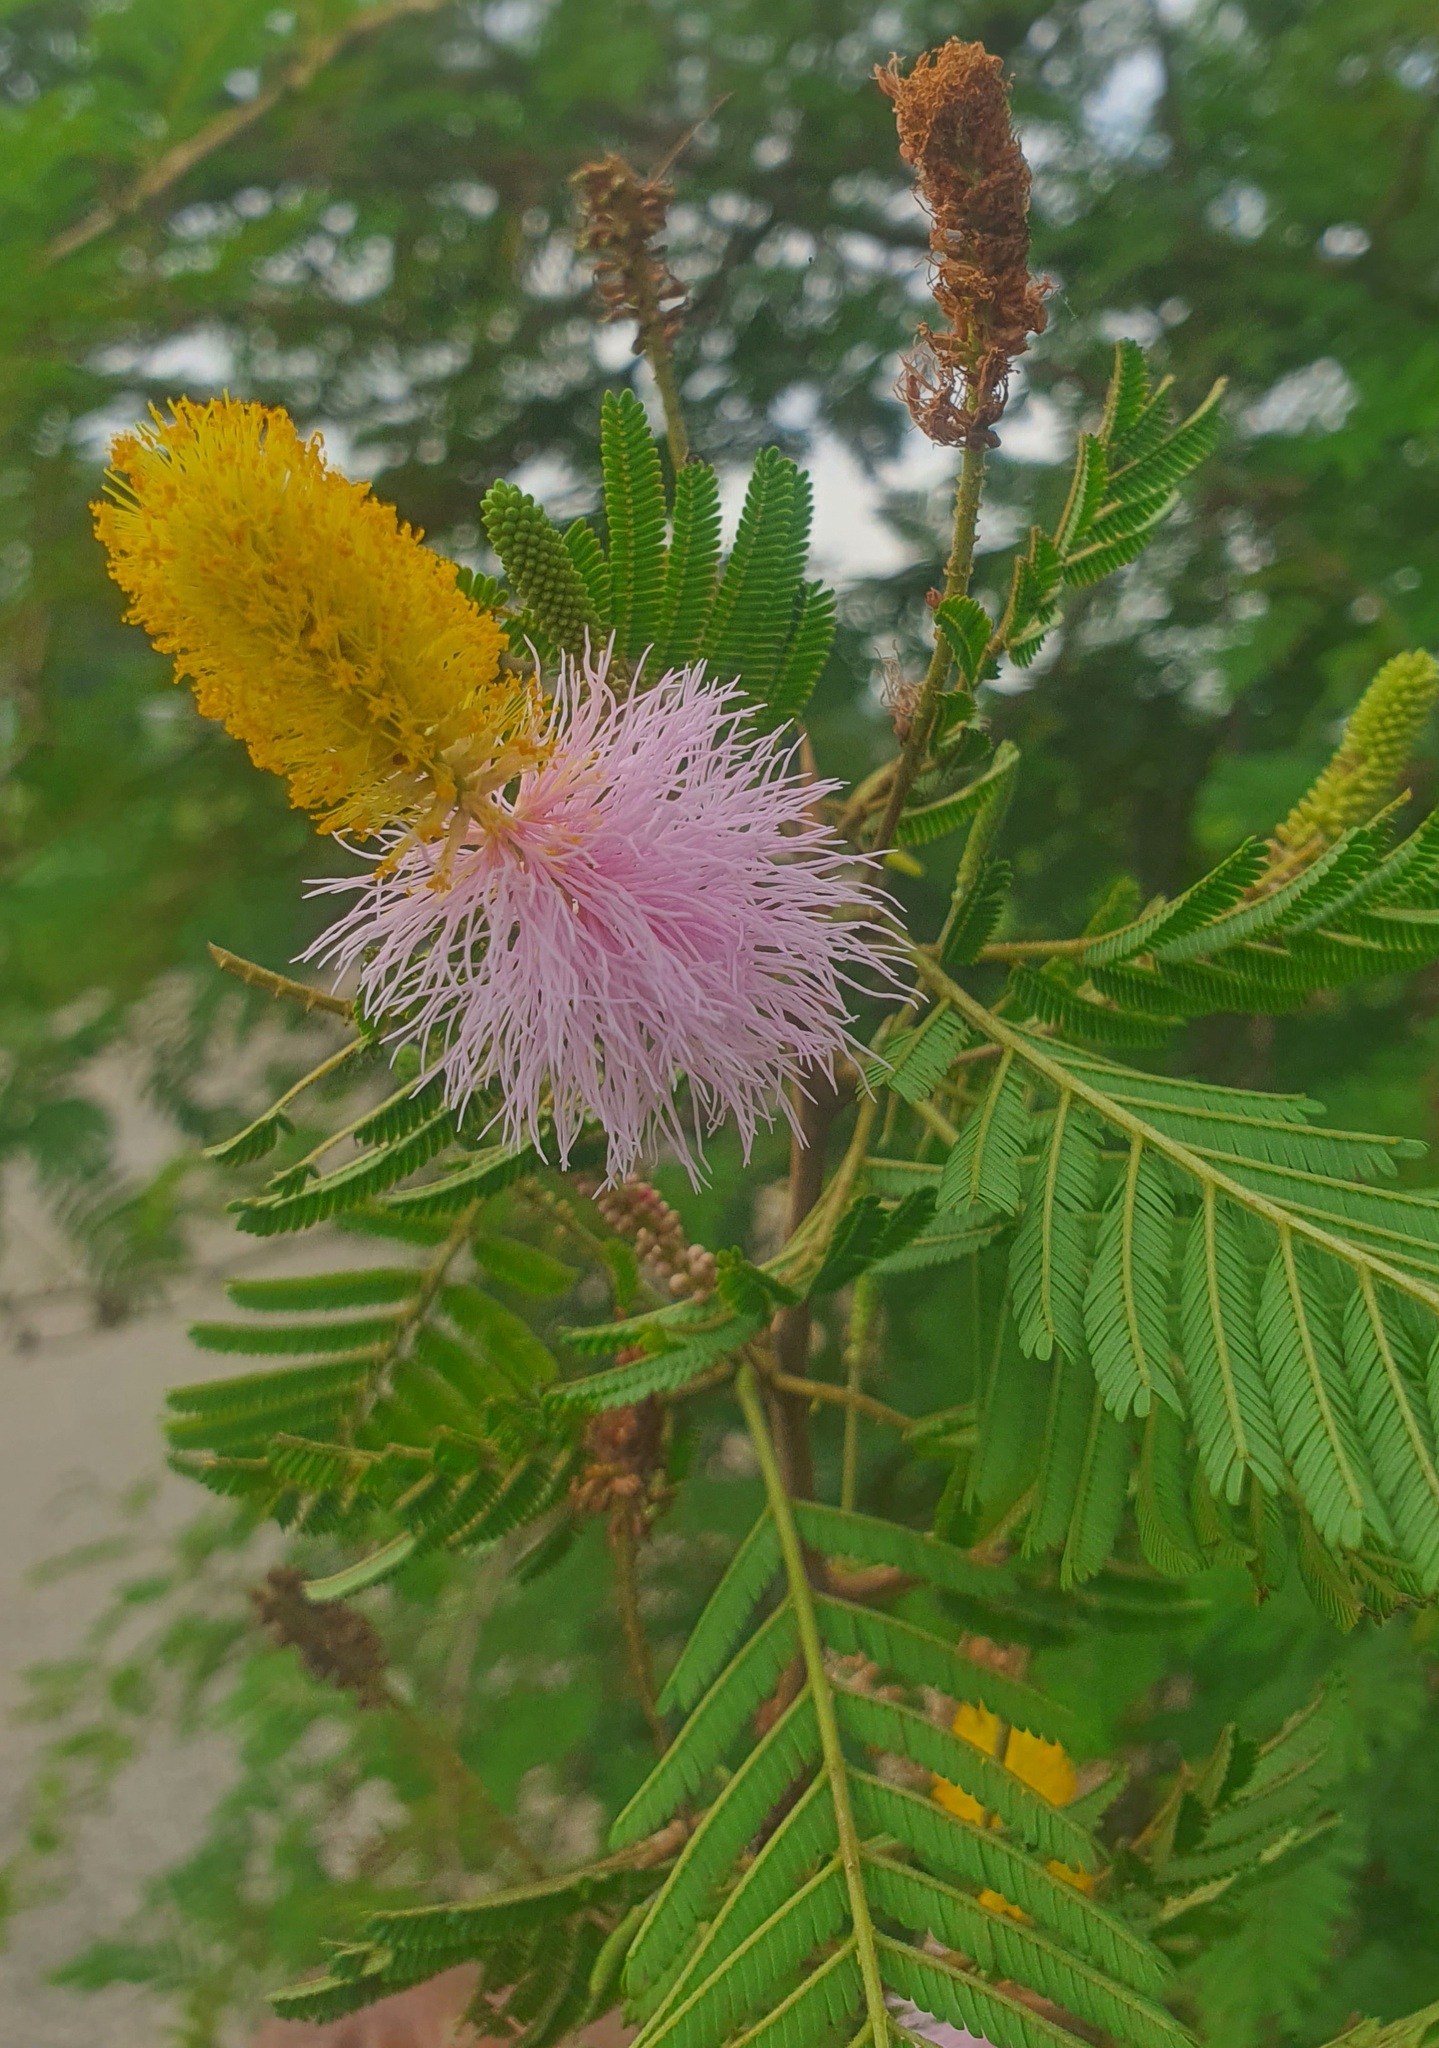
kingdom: Plantae
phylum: Tracheophyta
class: Magnoliopsida
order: Fabales
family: Fabaceae
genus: Dichrostachys
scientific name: Dichrostachys cinerea
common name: Sicklebush
